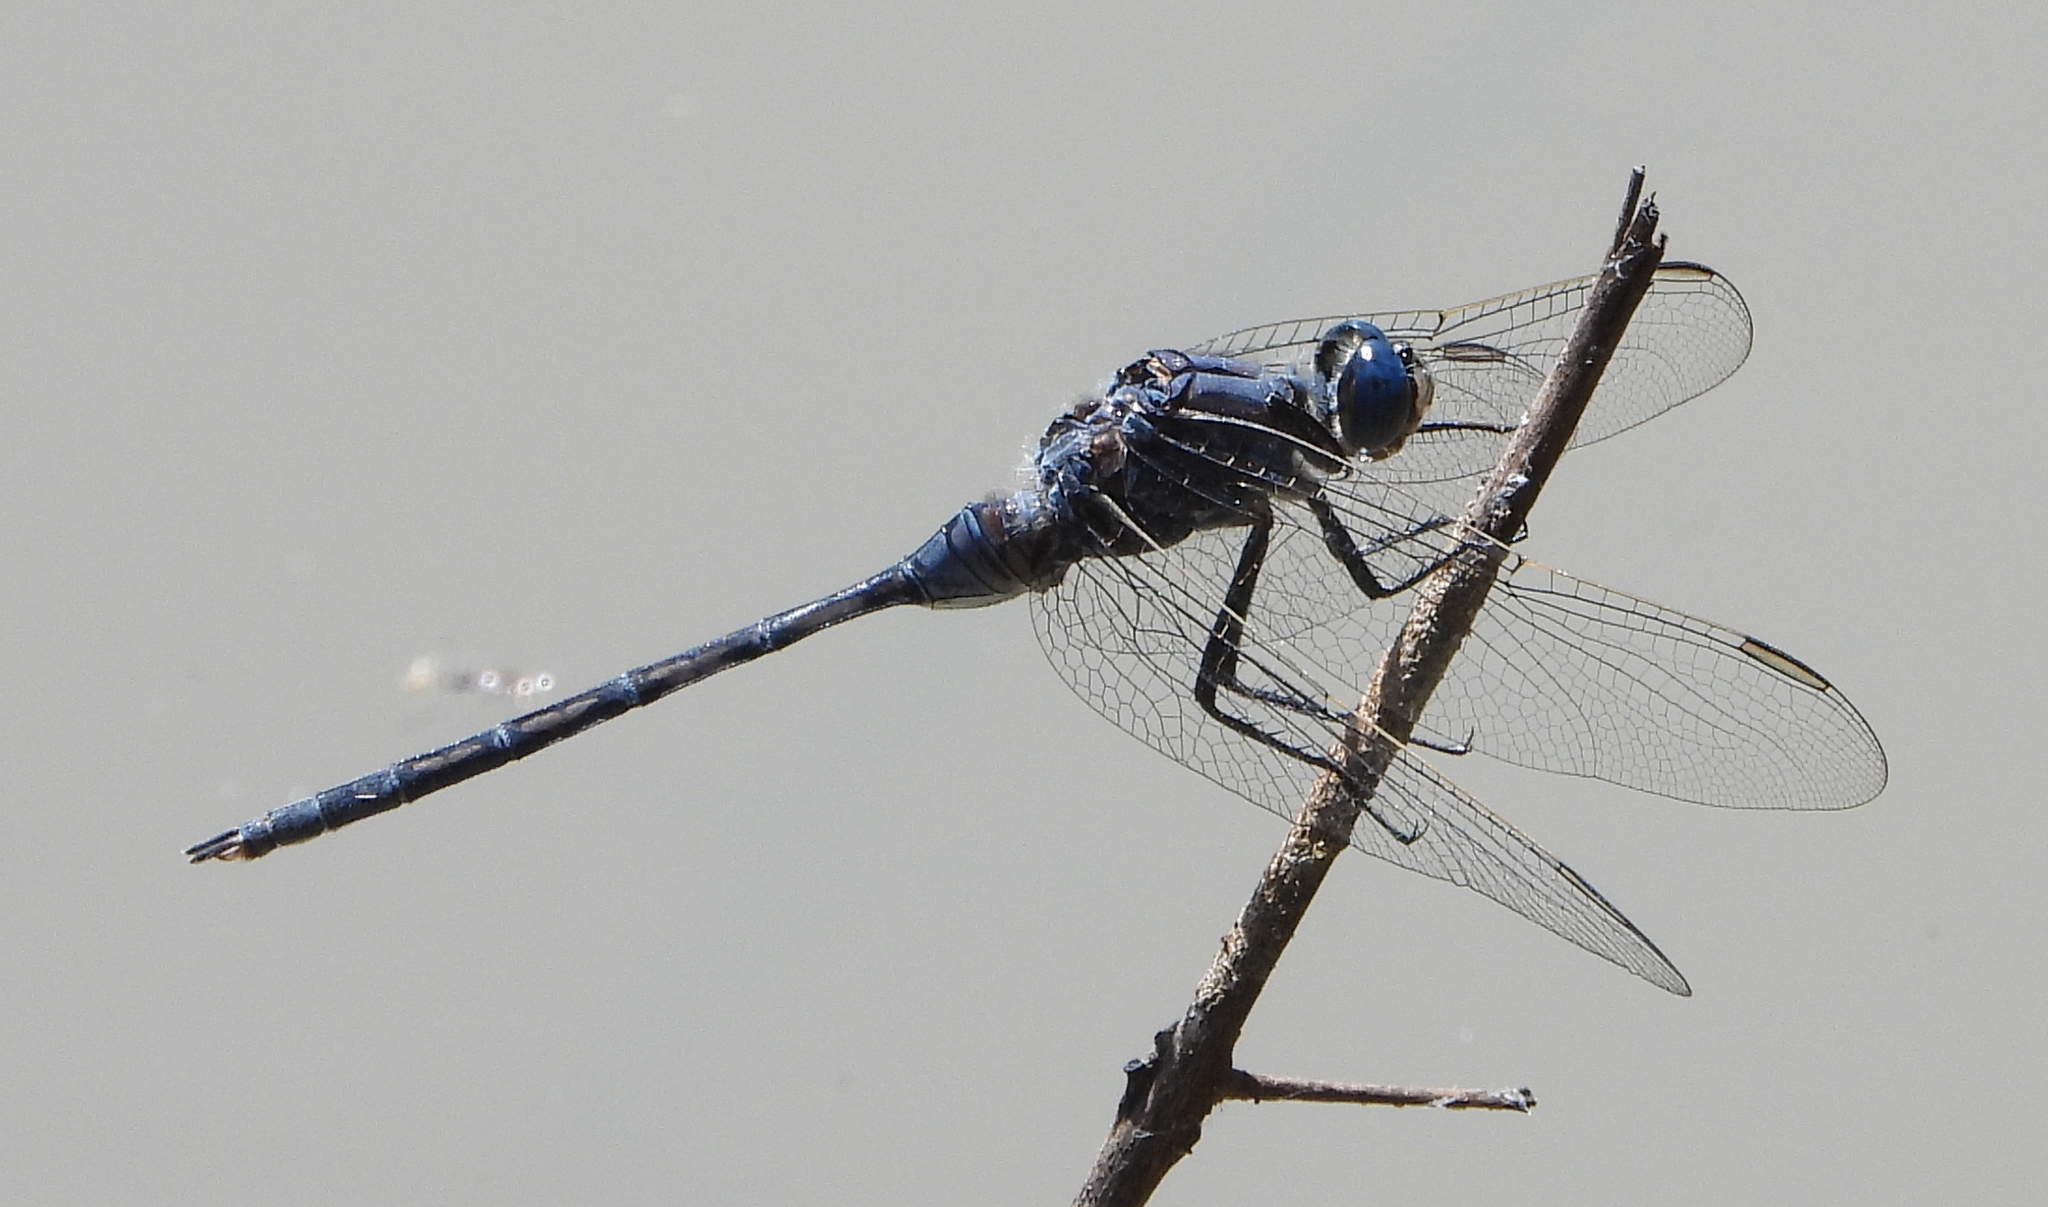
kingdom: Animalia
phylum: Arthropoda
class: Insecta
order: Odonata
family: Libellulidae
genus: Orthetrum
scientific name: Orthetrum trinacria
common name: Long skimmer
